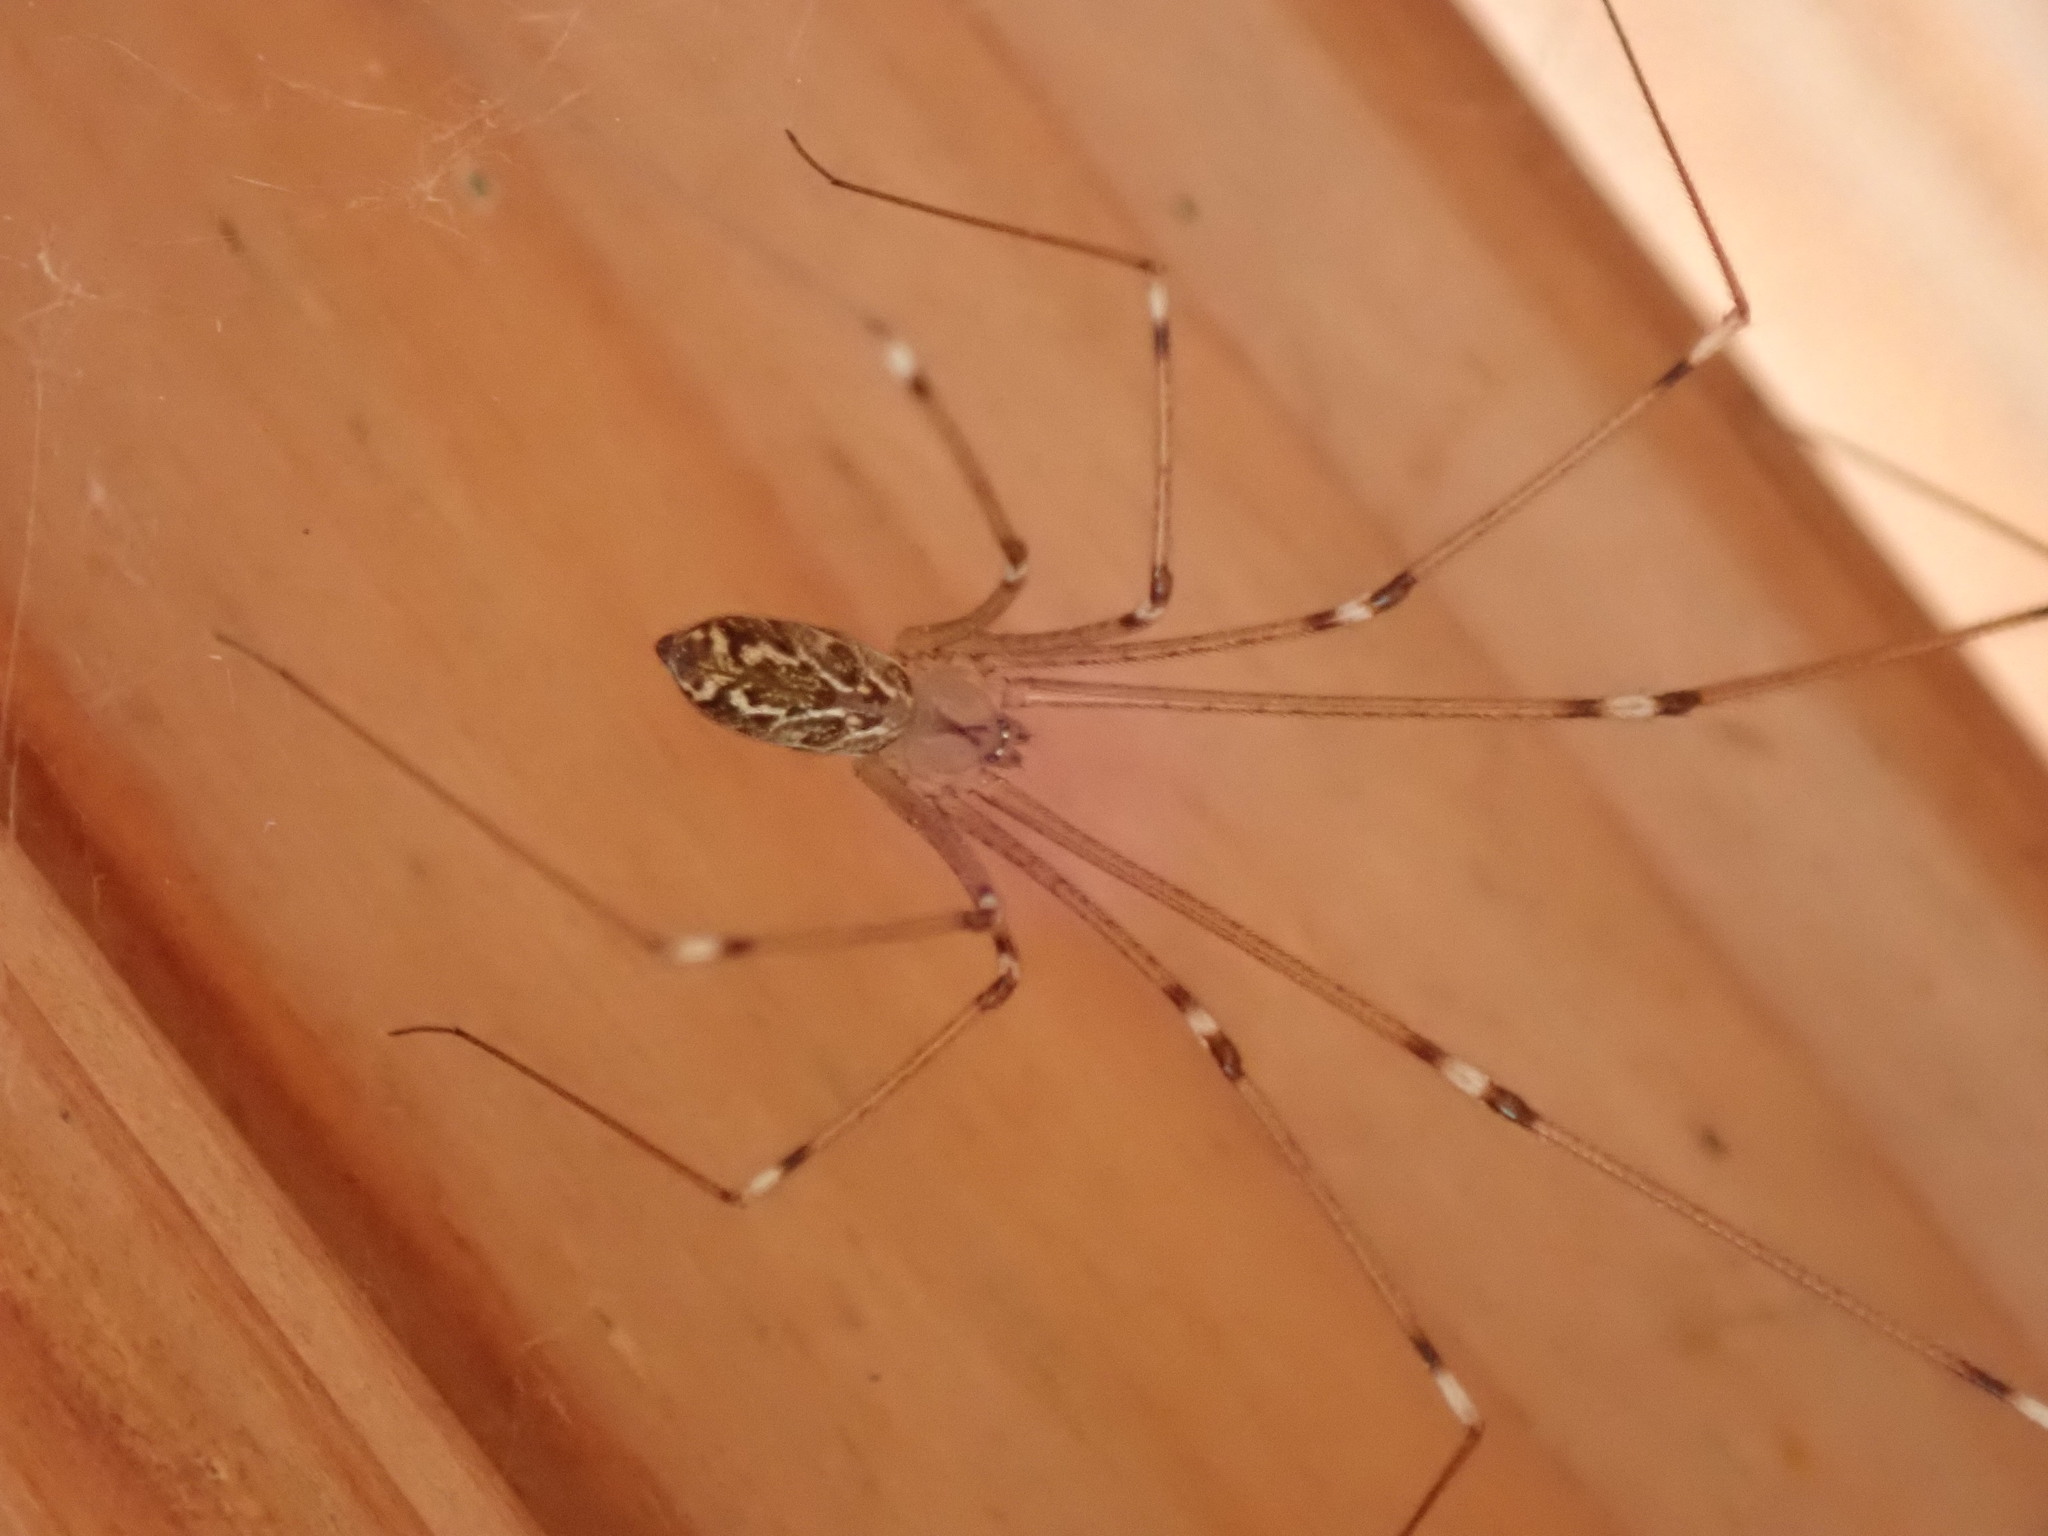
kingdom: Animalia
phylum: Arthropoda
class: Arachnida
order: Araneae
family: Pholcidae
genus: Holocnemus
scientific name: Holocnemus pluchei
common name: Marbled cellar spider
